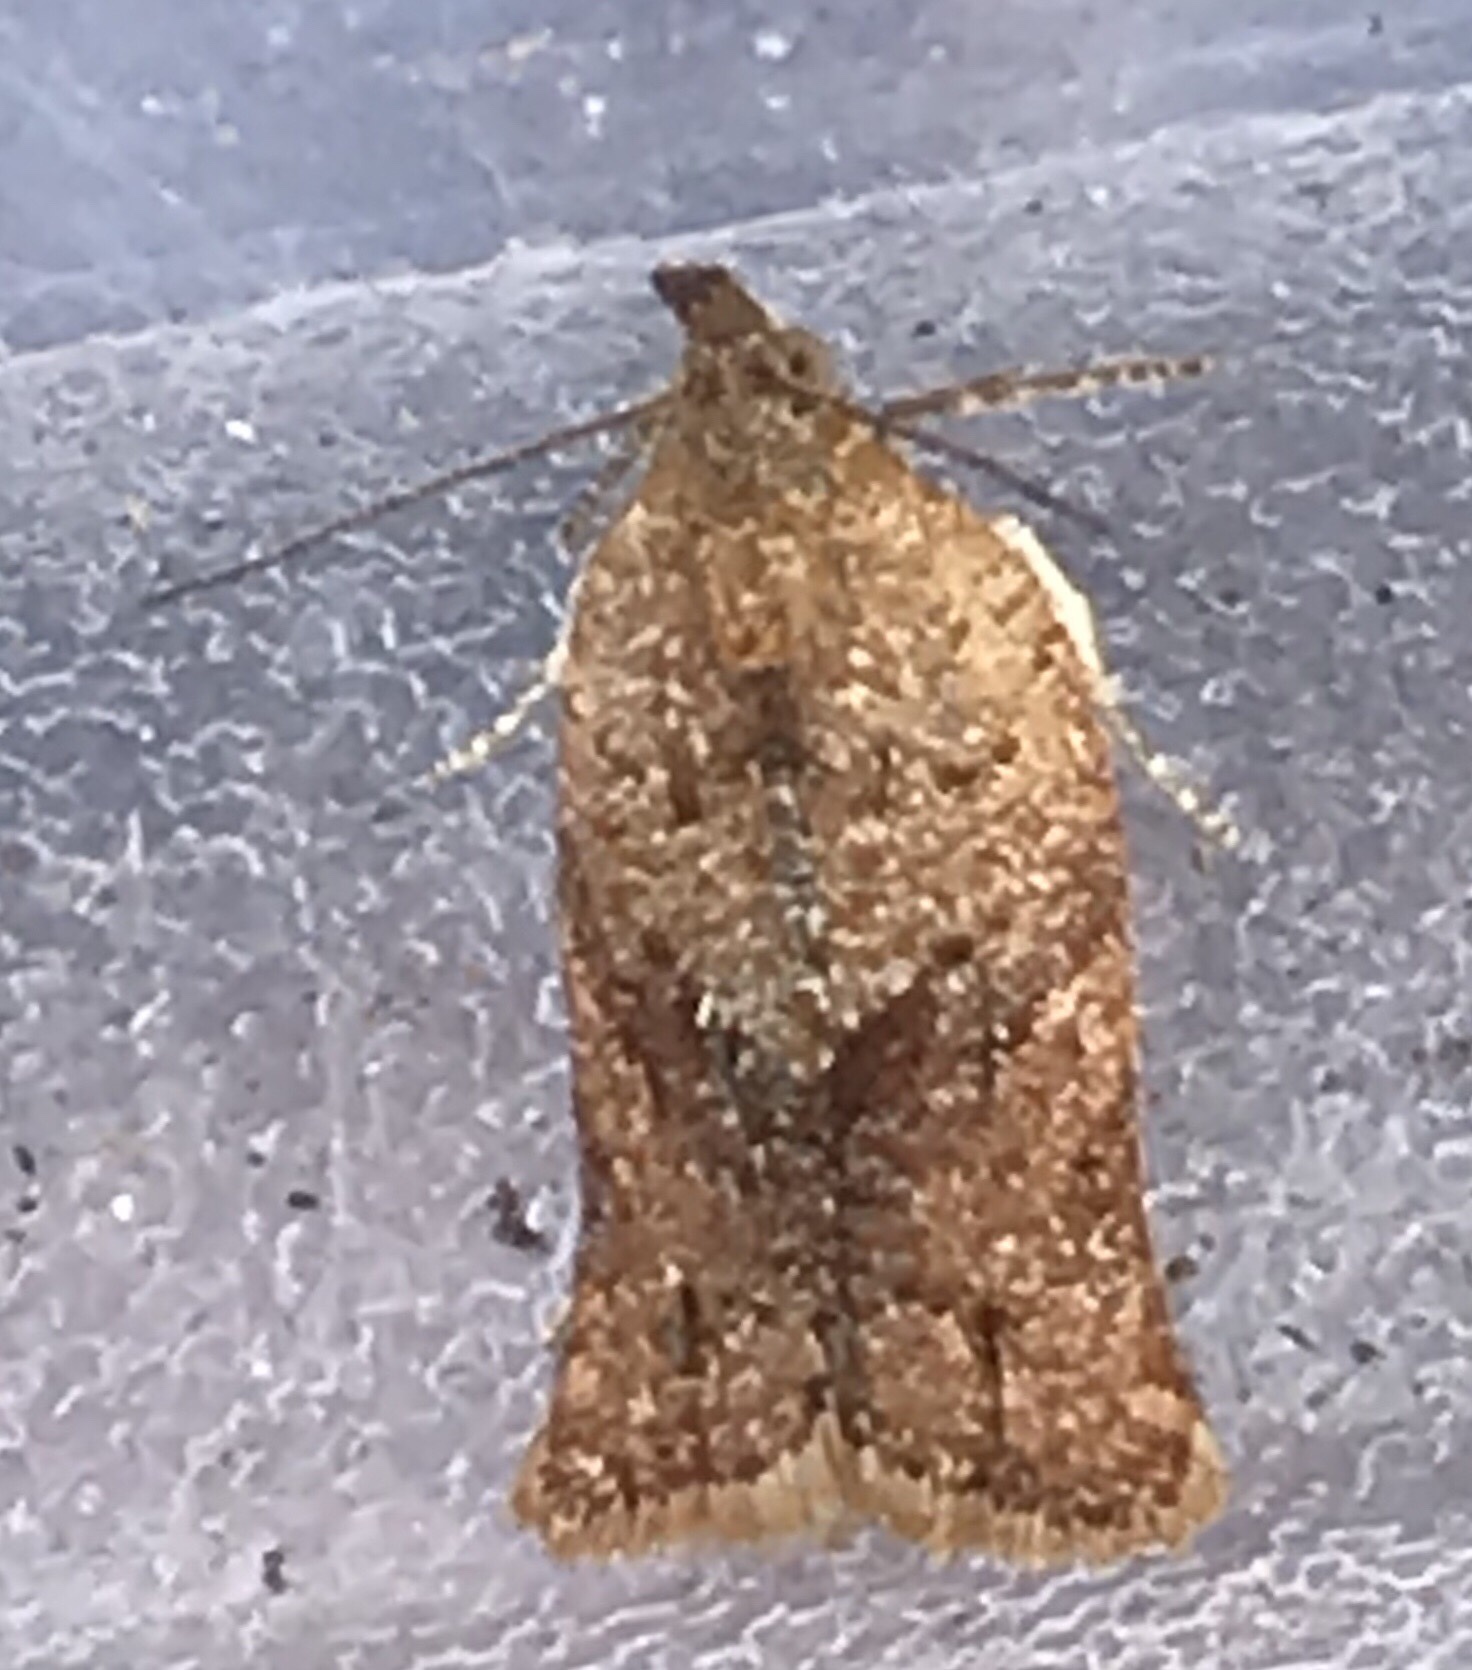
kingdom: Animalia
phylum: Arthropoda
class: Insecta
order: Lepidoptera
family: Tortricidae
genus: Argyrotaenia
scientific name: Argyrotaenia franciscana
